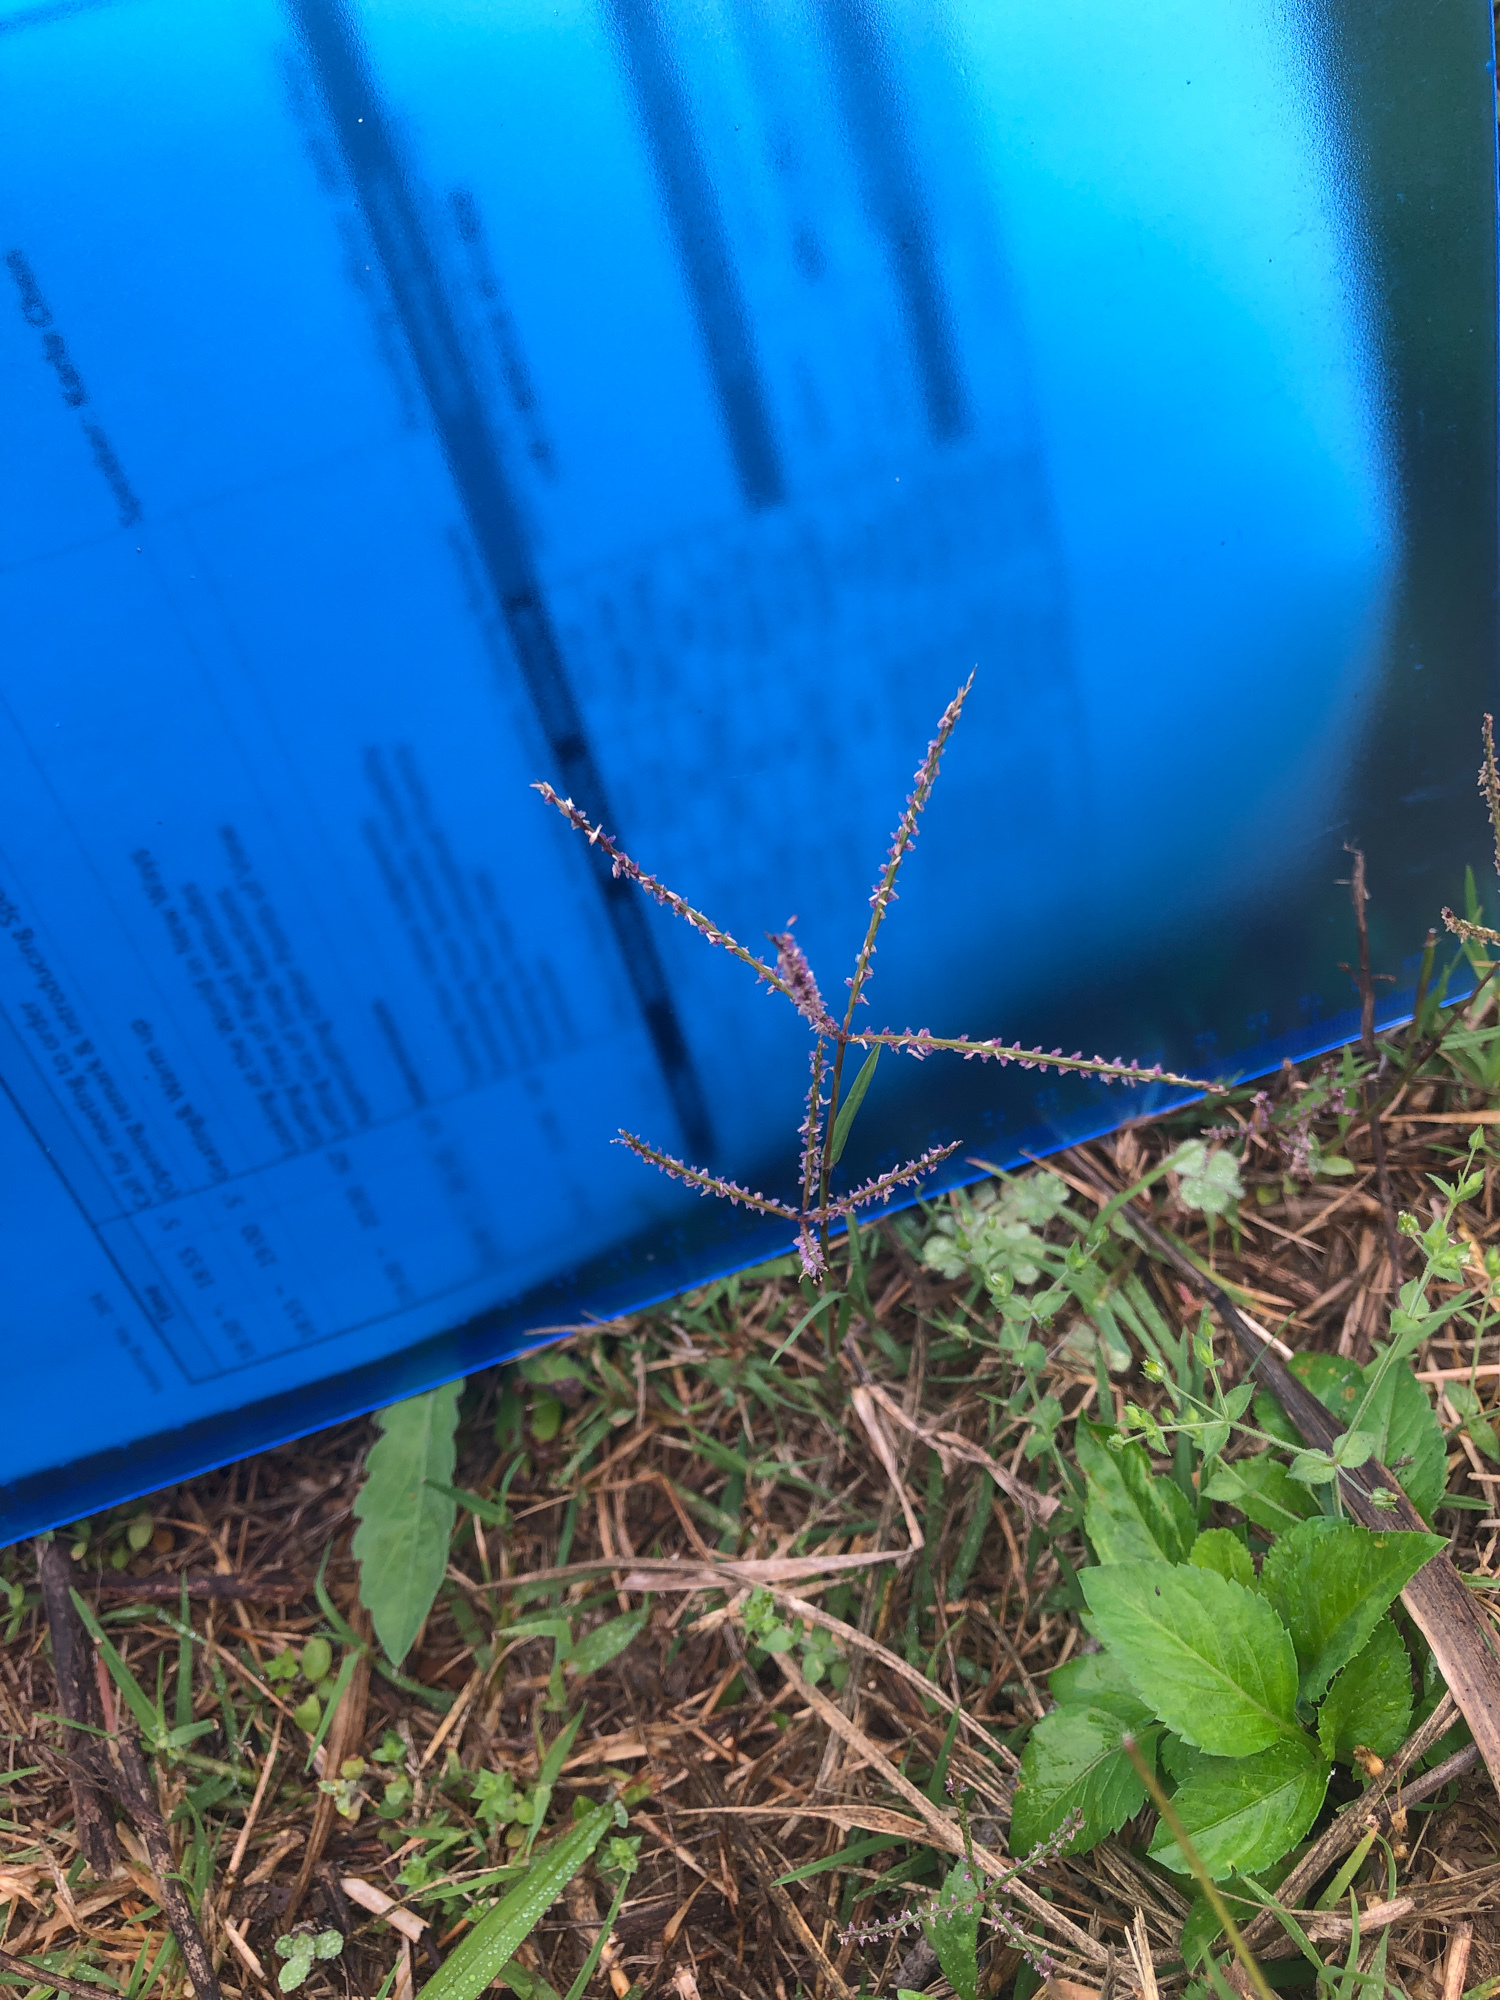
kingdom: Plantae
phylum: Tracheophyta
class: Liliopsida
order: Poales
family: Poaceae
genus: Cynodon
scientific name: Cynodon dactylon
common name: Bermuda grass
